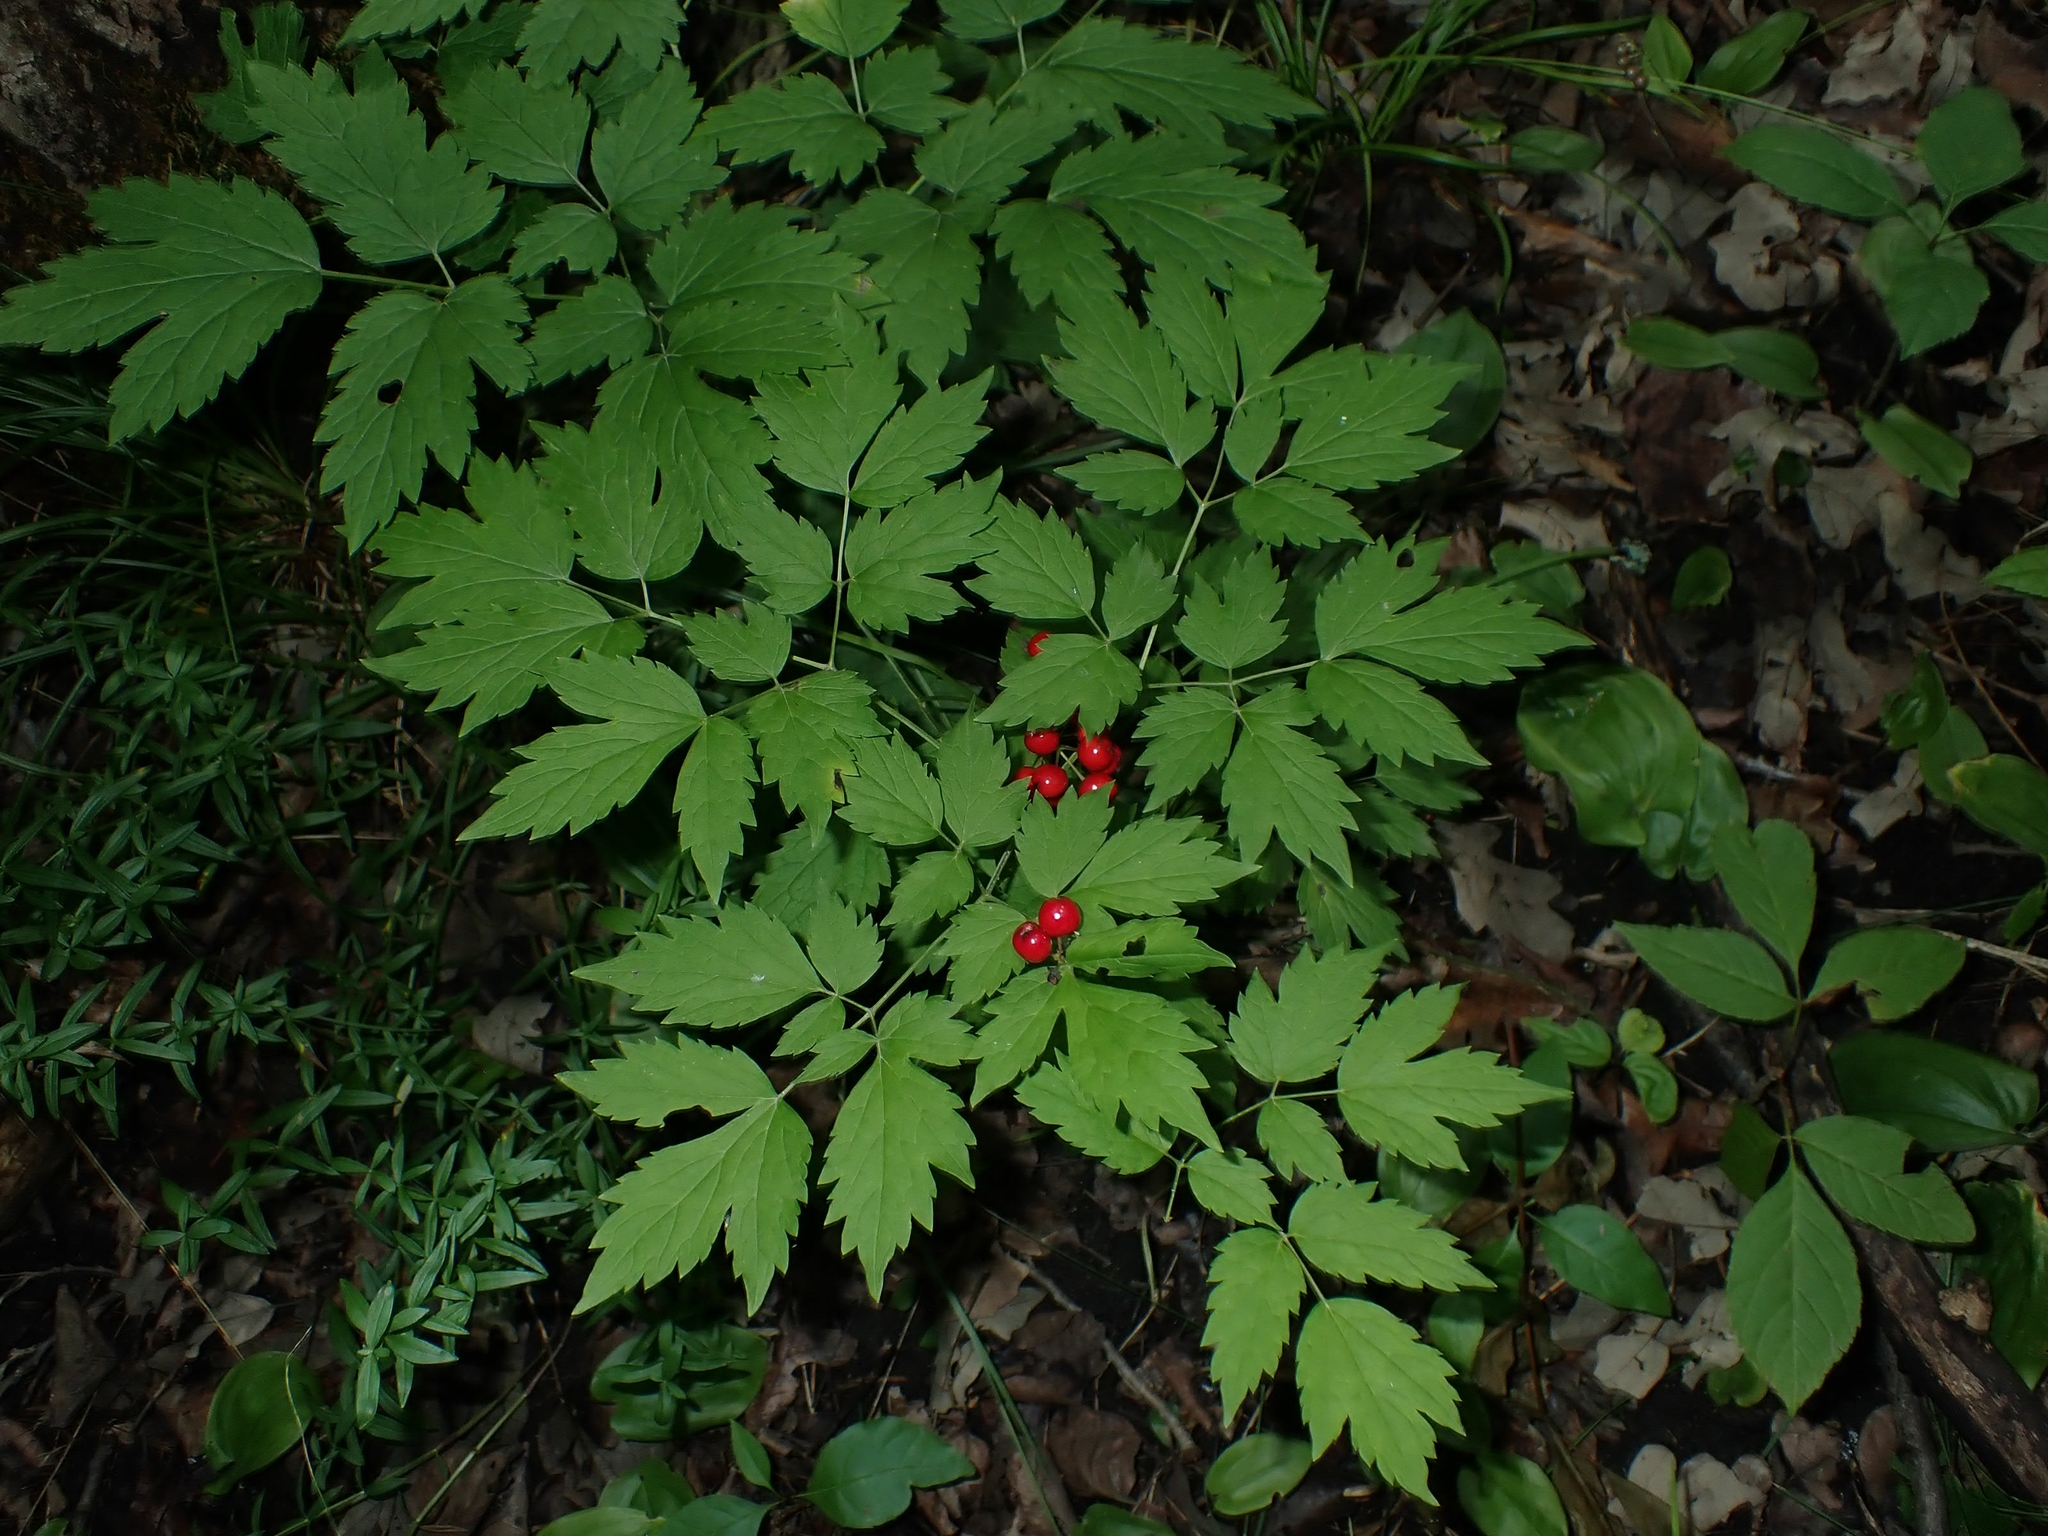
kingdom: Plantae
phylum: Tracheophyta
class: Magnoliopsida
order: Ranunculales
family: Ranunculaceae
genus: Actaea
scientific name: Actaea rubra
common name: Red baneberry
